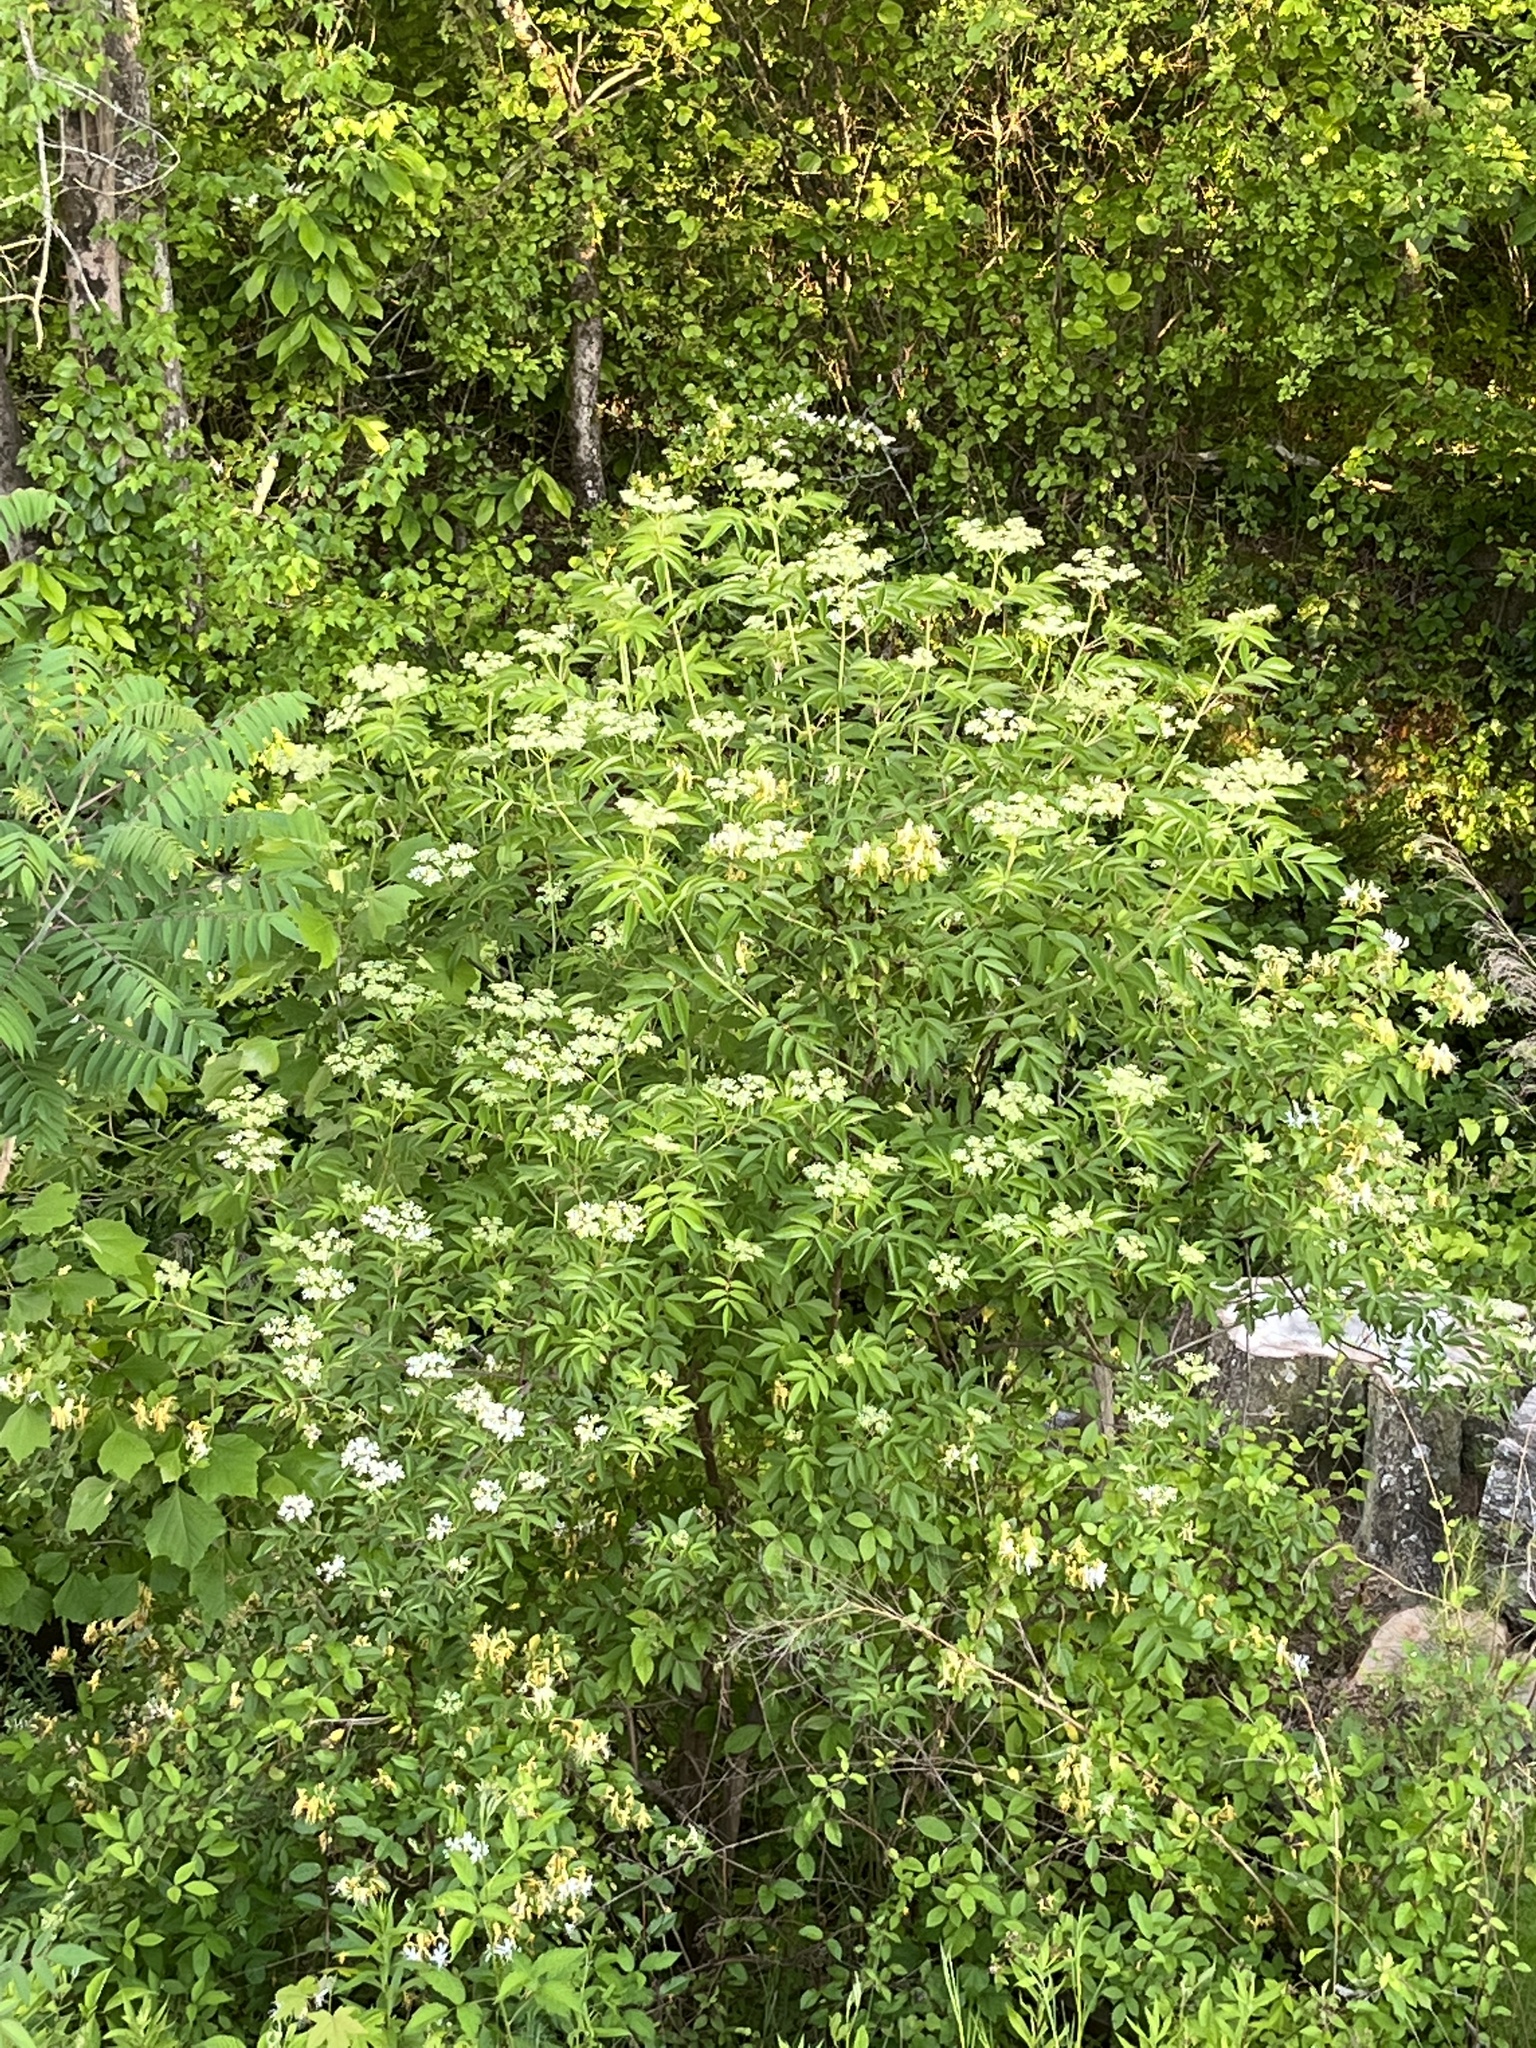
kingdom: Plantae
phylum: Tracheophyta
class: Magnoliopsida
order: Dipsacales
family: Viburnaceae
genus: Sambucus
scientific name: Sambucus canadensis
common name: American elder
